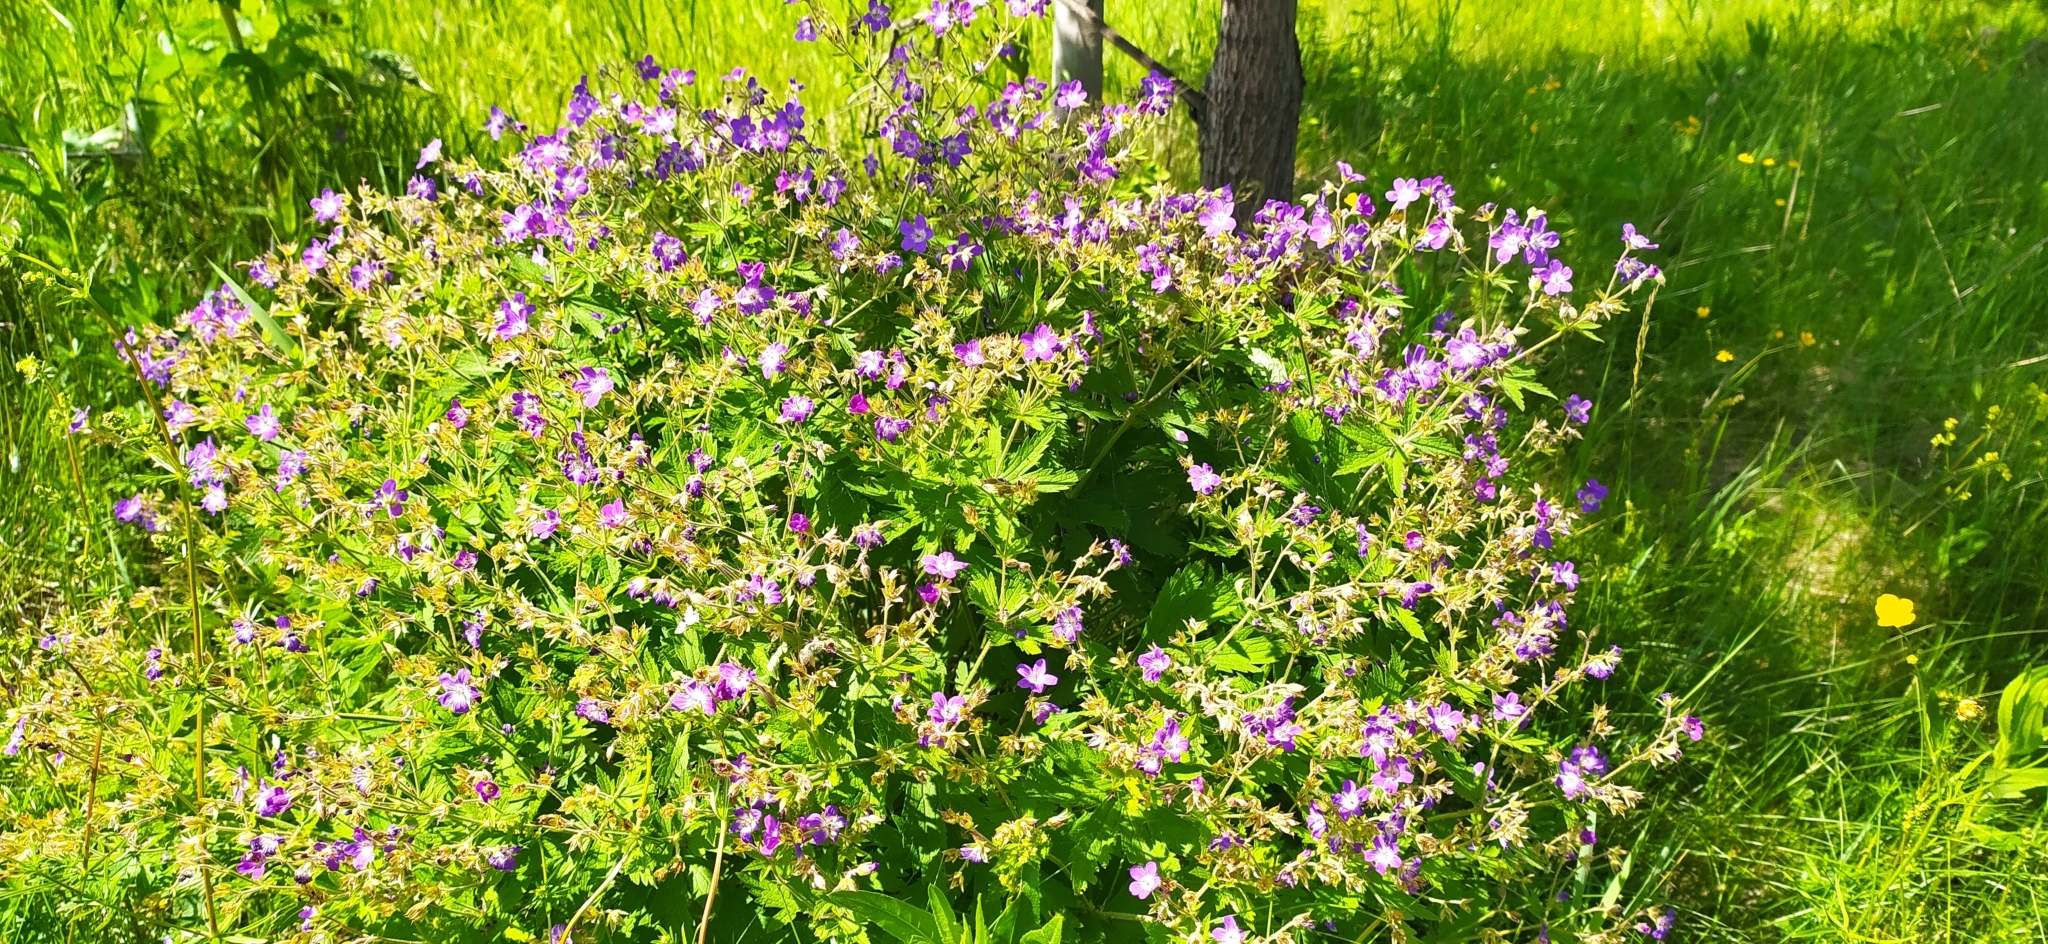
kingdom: Plantae
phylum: Tracheophyta
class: Magnoliopsida
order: Geraniales
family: Geraniaceae
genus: Geranium
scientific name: Geranium sylvaticum
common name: Wood crane's-bill
